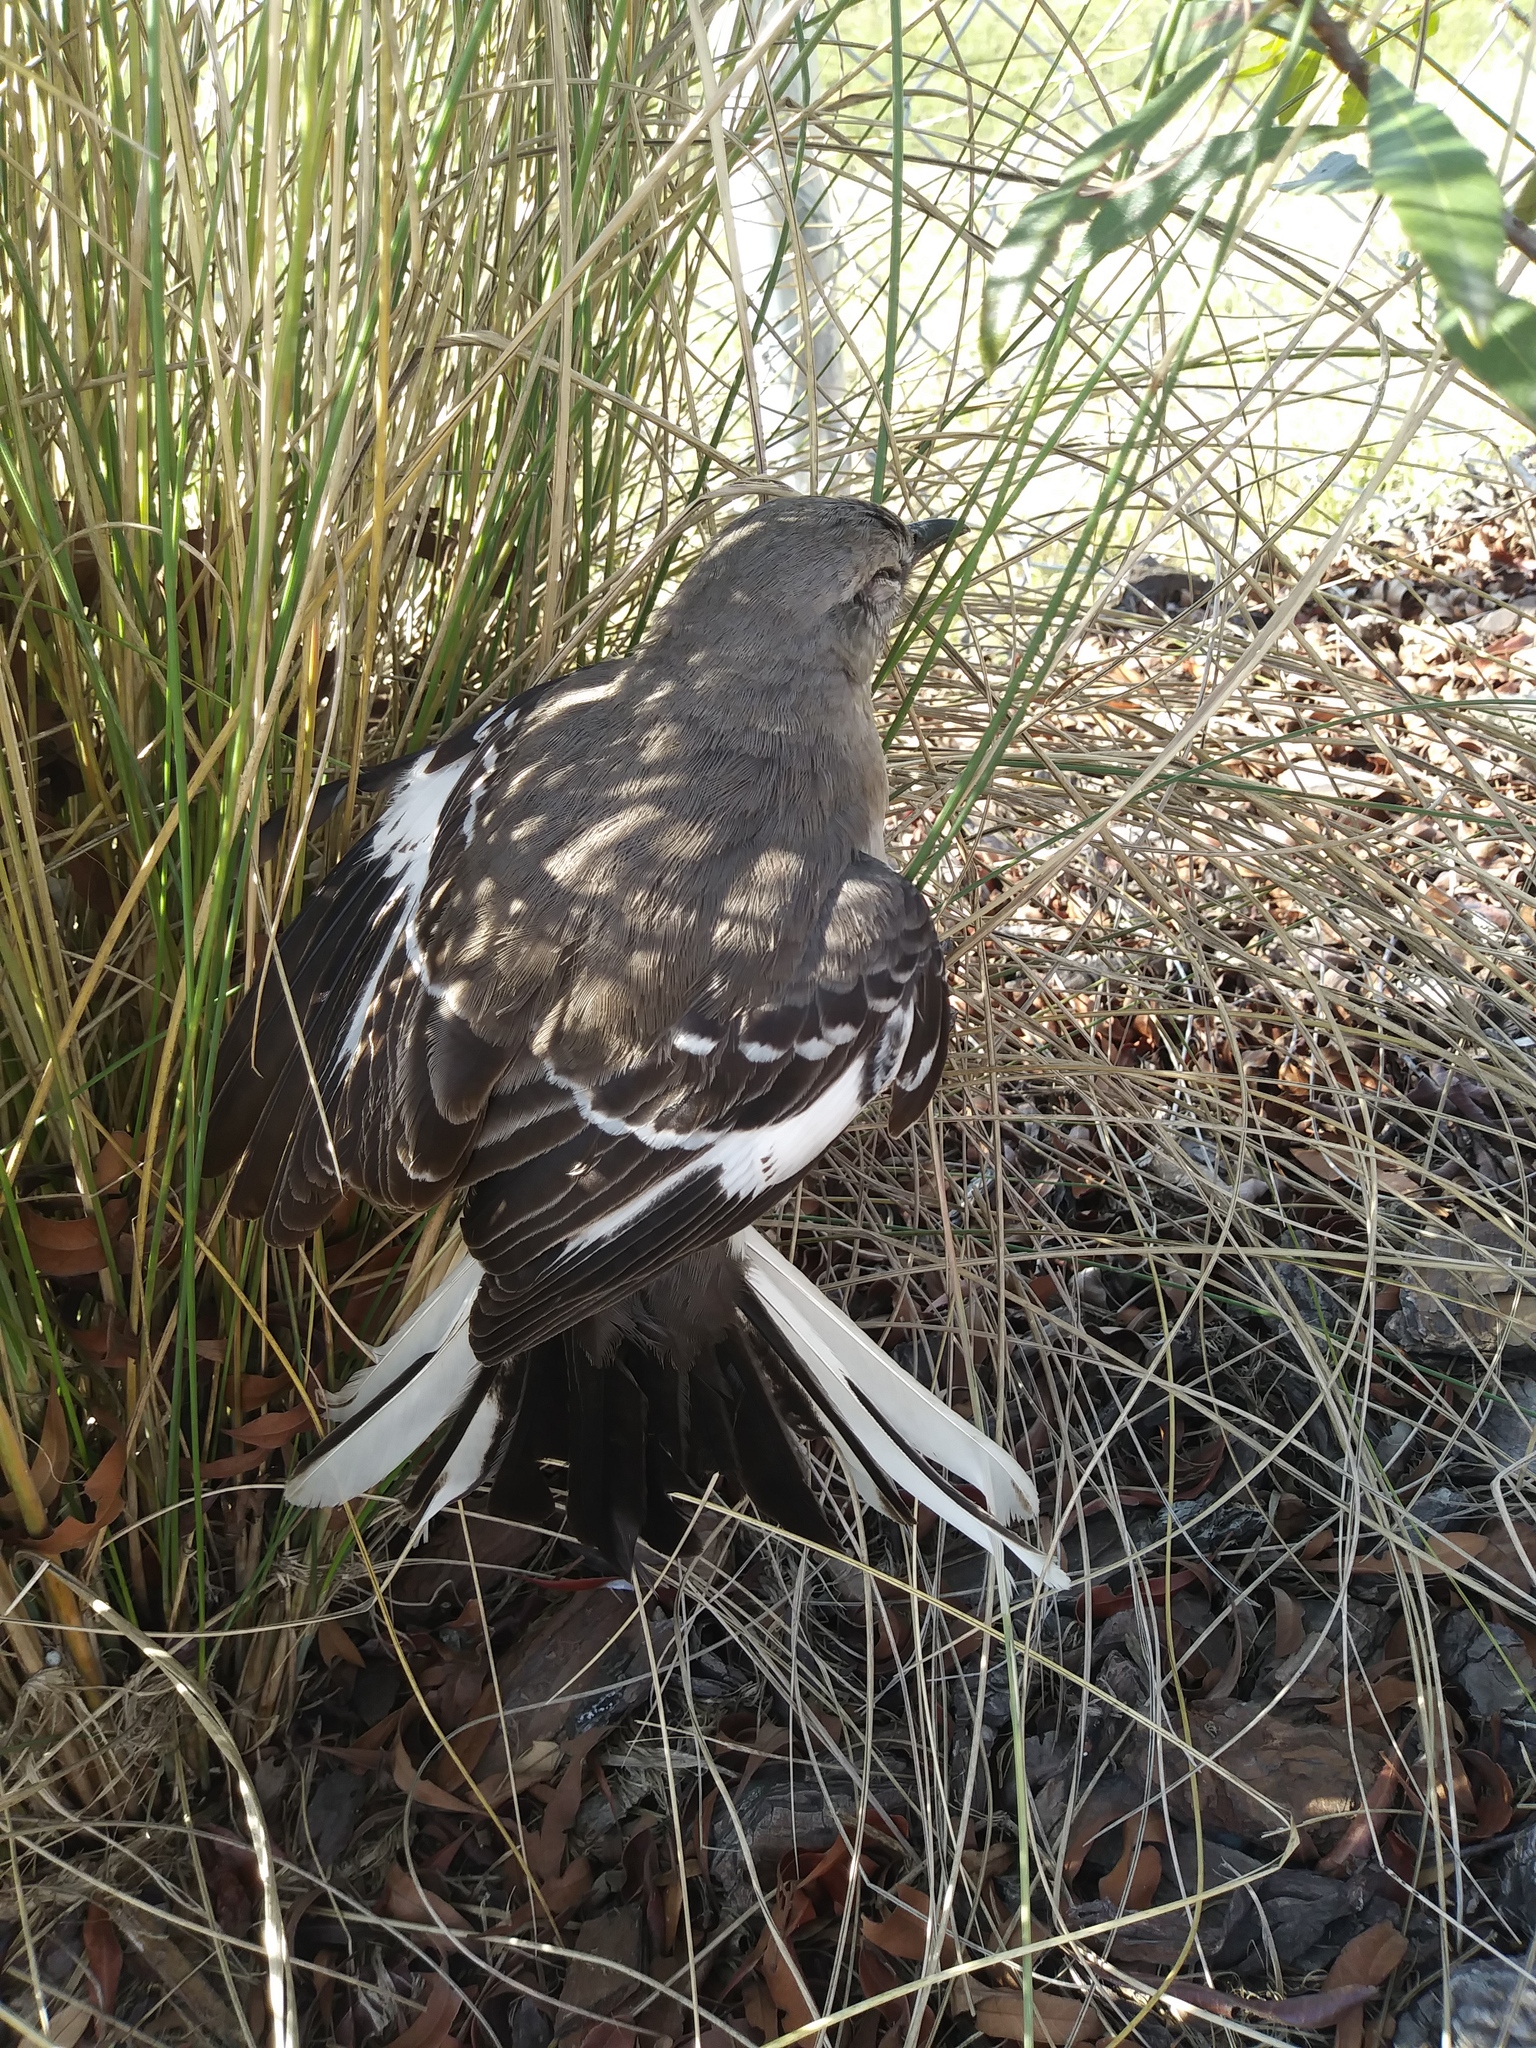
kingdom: Animalia
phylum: Chordata
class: Aves
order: Passeriformes
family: Mimidae
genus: Mimus
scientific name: Mimus polyglottos
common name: Northern mockingbird
